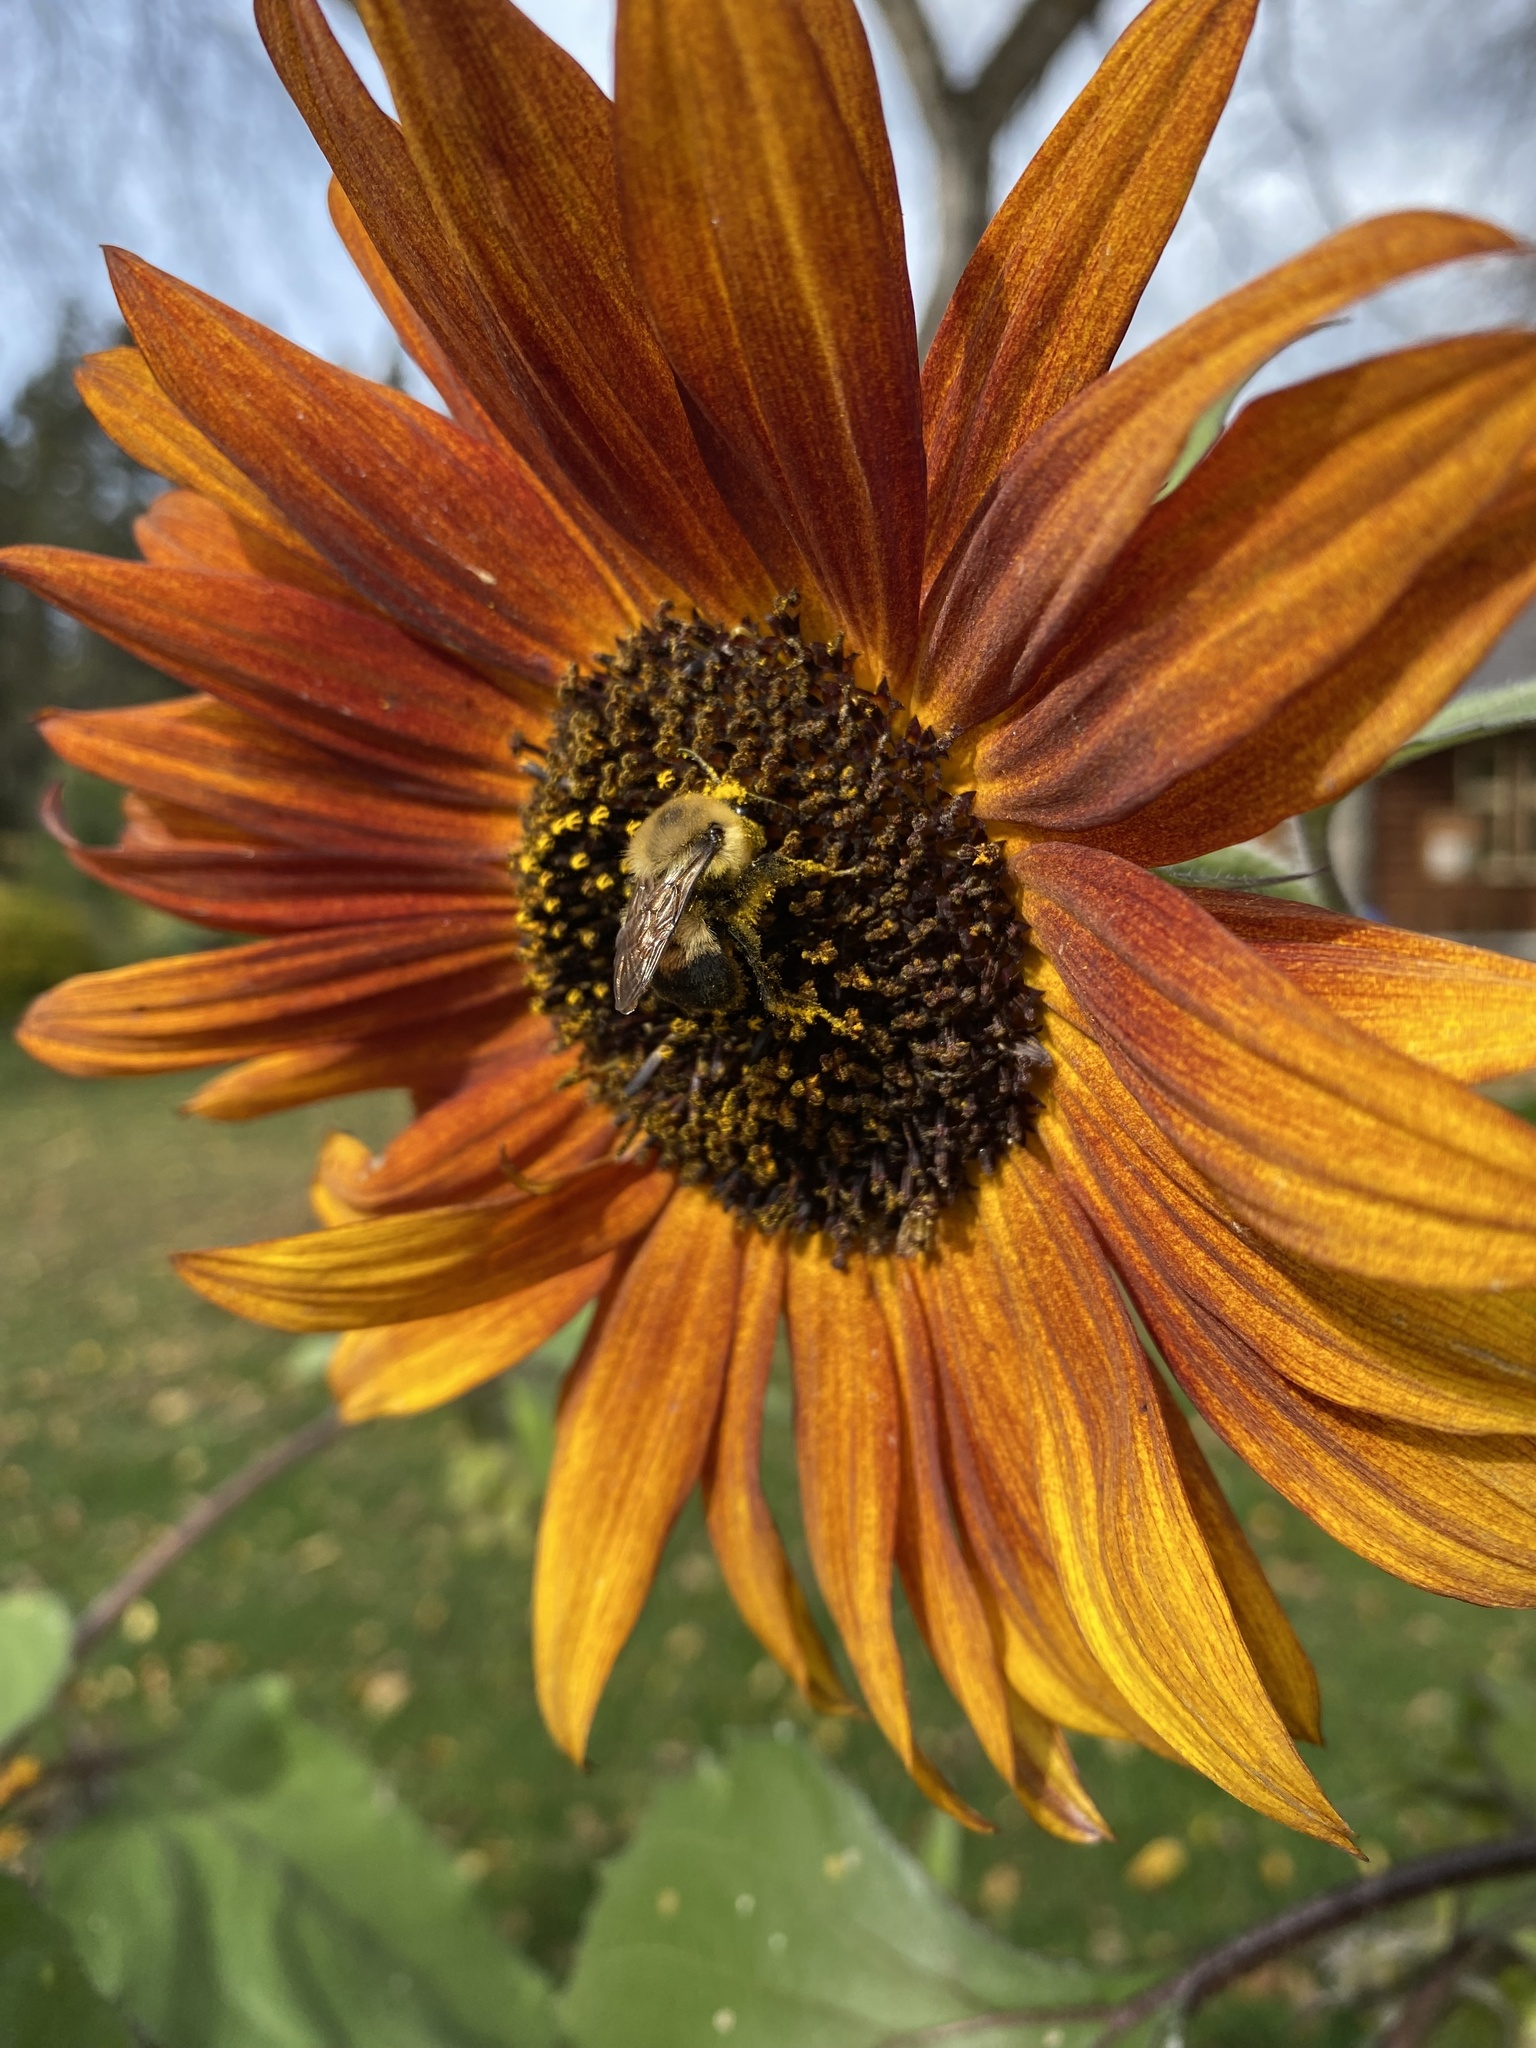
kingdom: Animalia
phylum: Arthropoda
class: Insecta
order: Hymenoptera
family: Apidae
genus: Bombus
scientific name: Bombus griseocollis
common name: Brown-belted bumble bee
